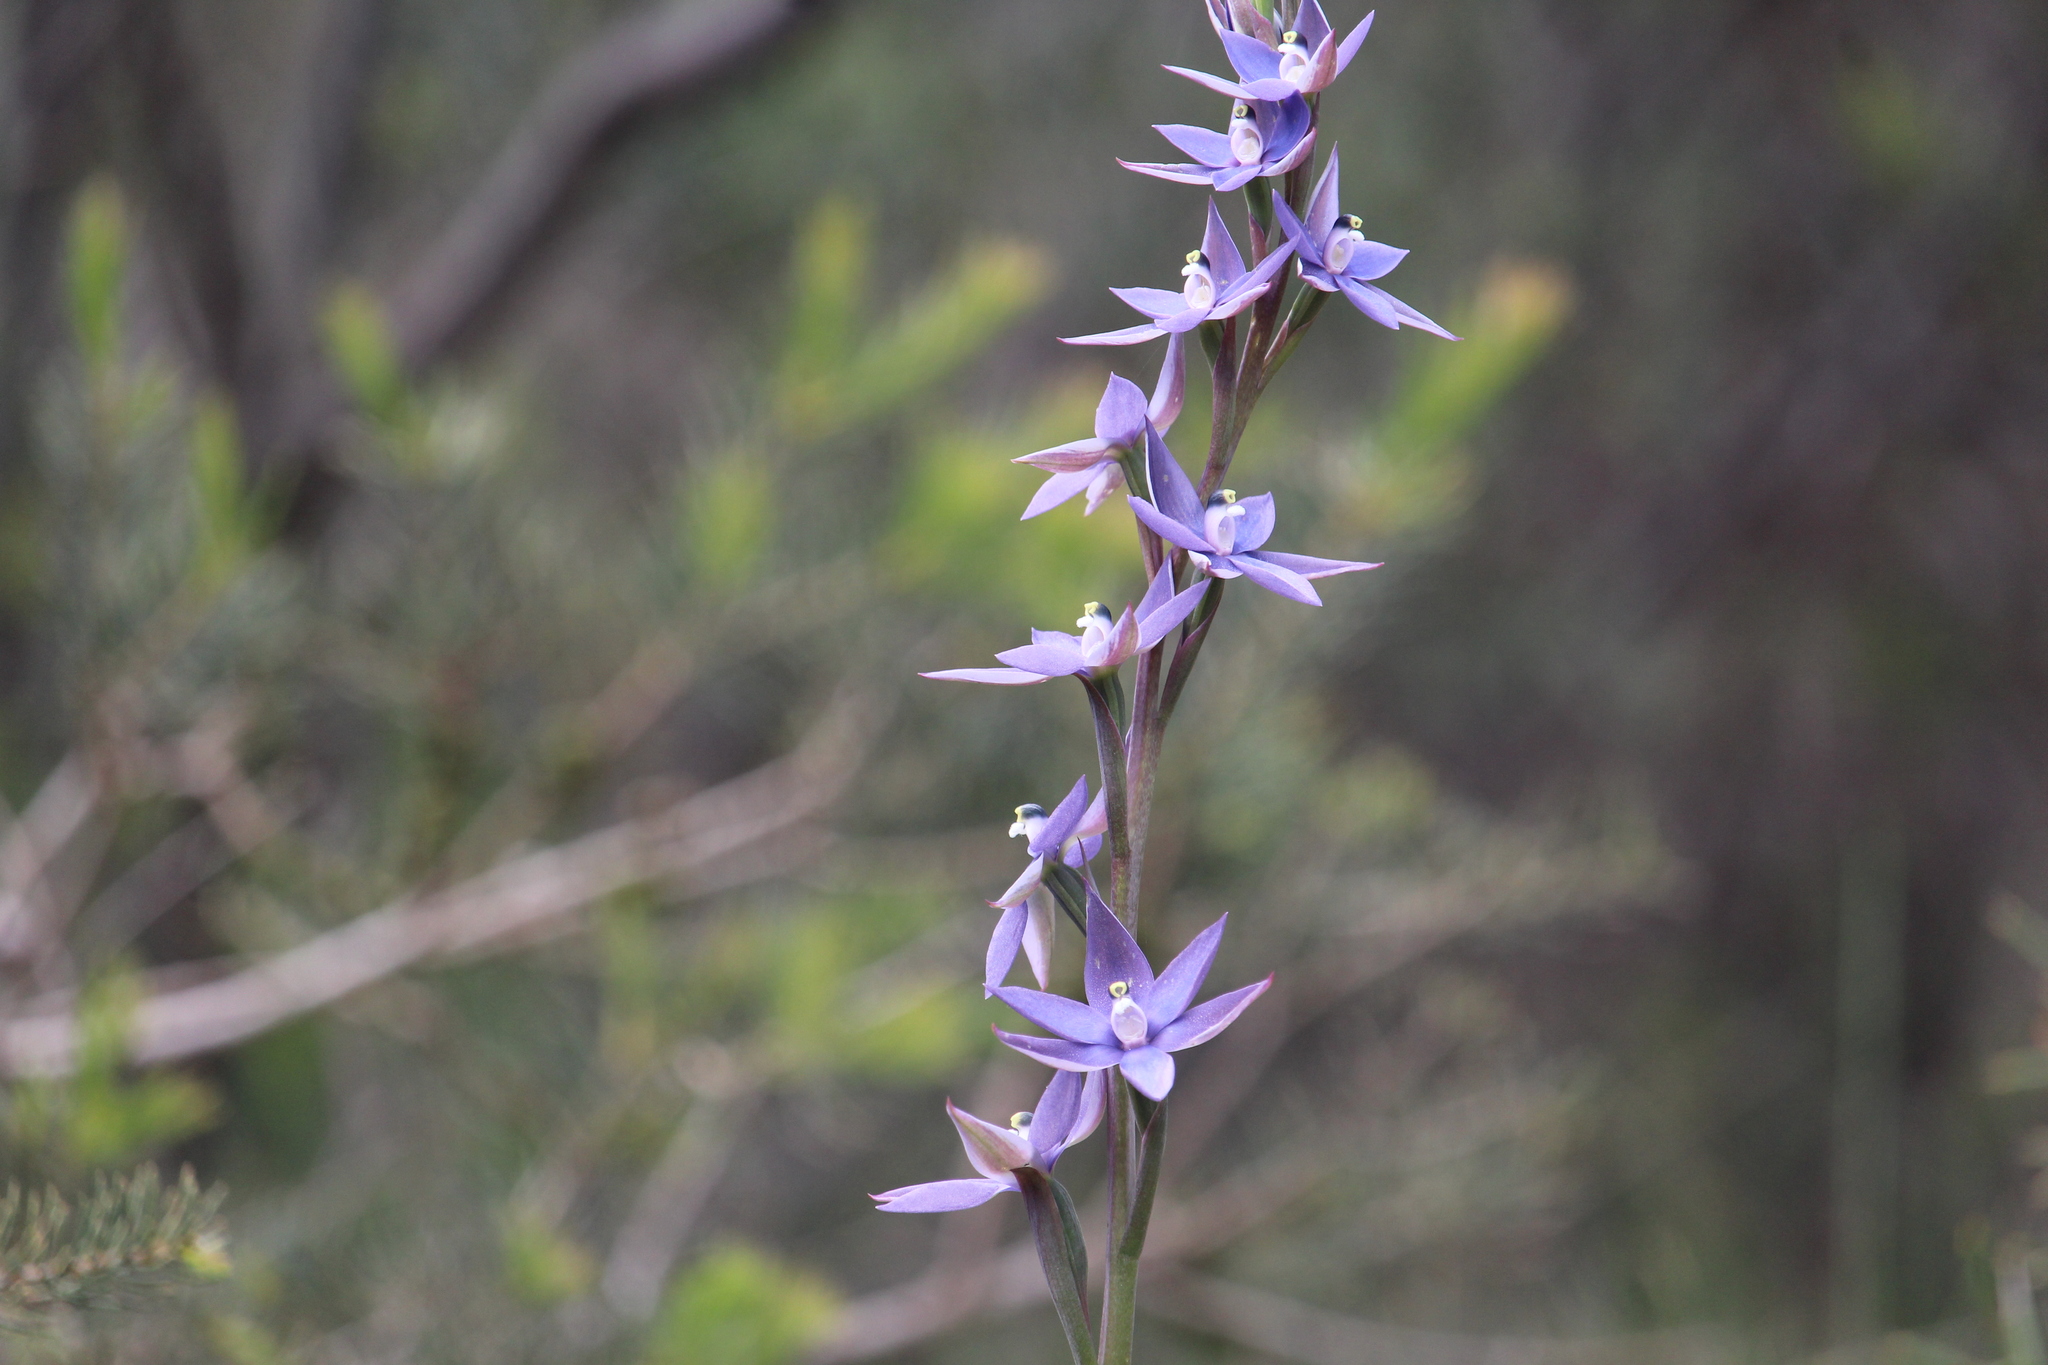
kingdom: Plantae
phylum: Tracheophyta
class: Liliopsida
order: Asparagales
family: Orchidaceae
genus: Thelymitra
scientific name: Thelymitra macrophylla
